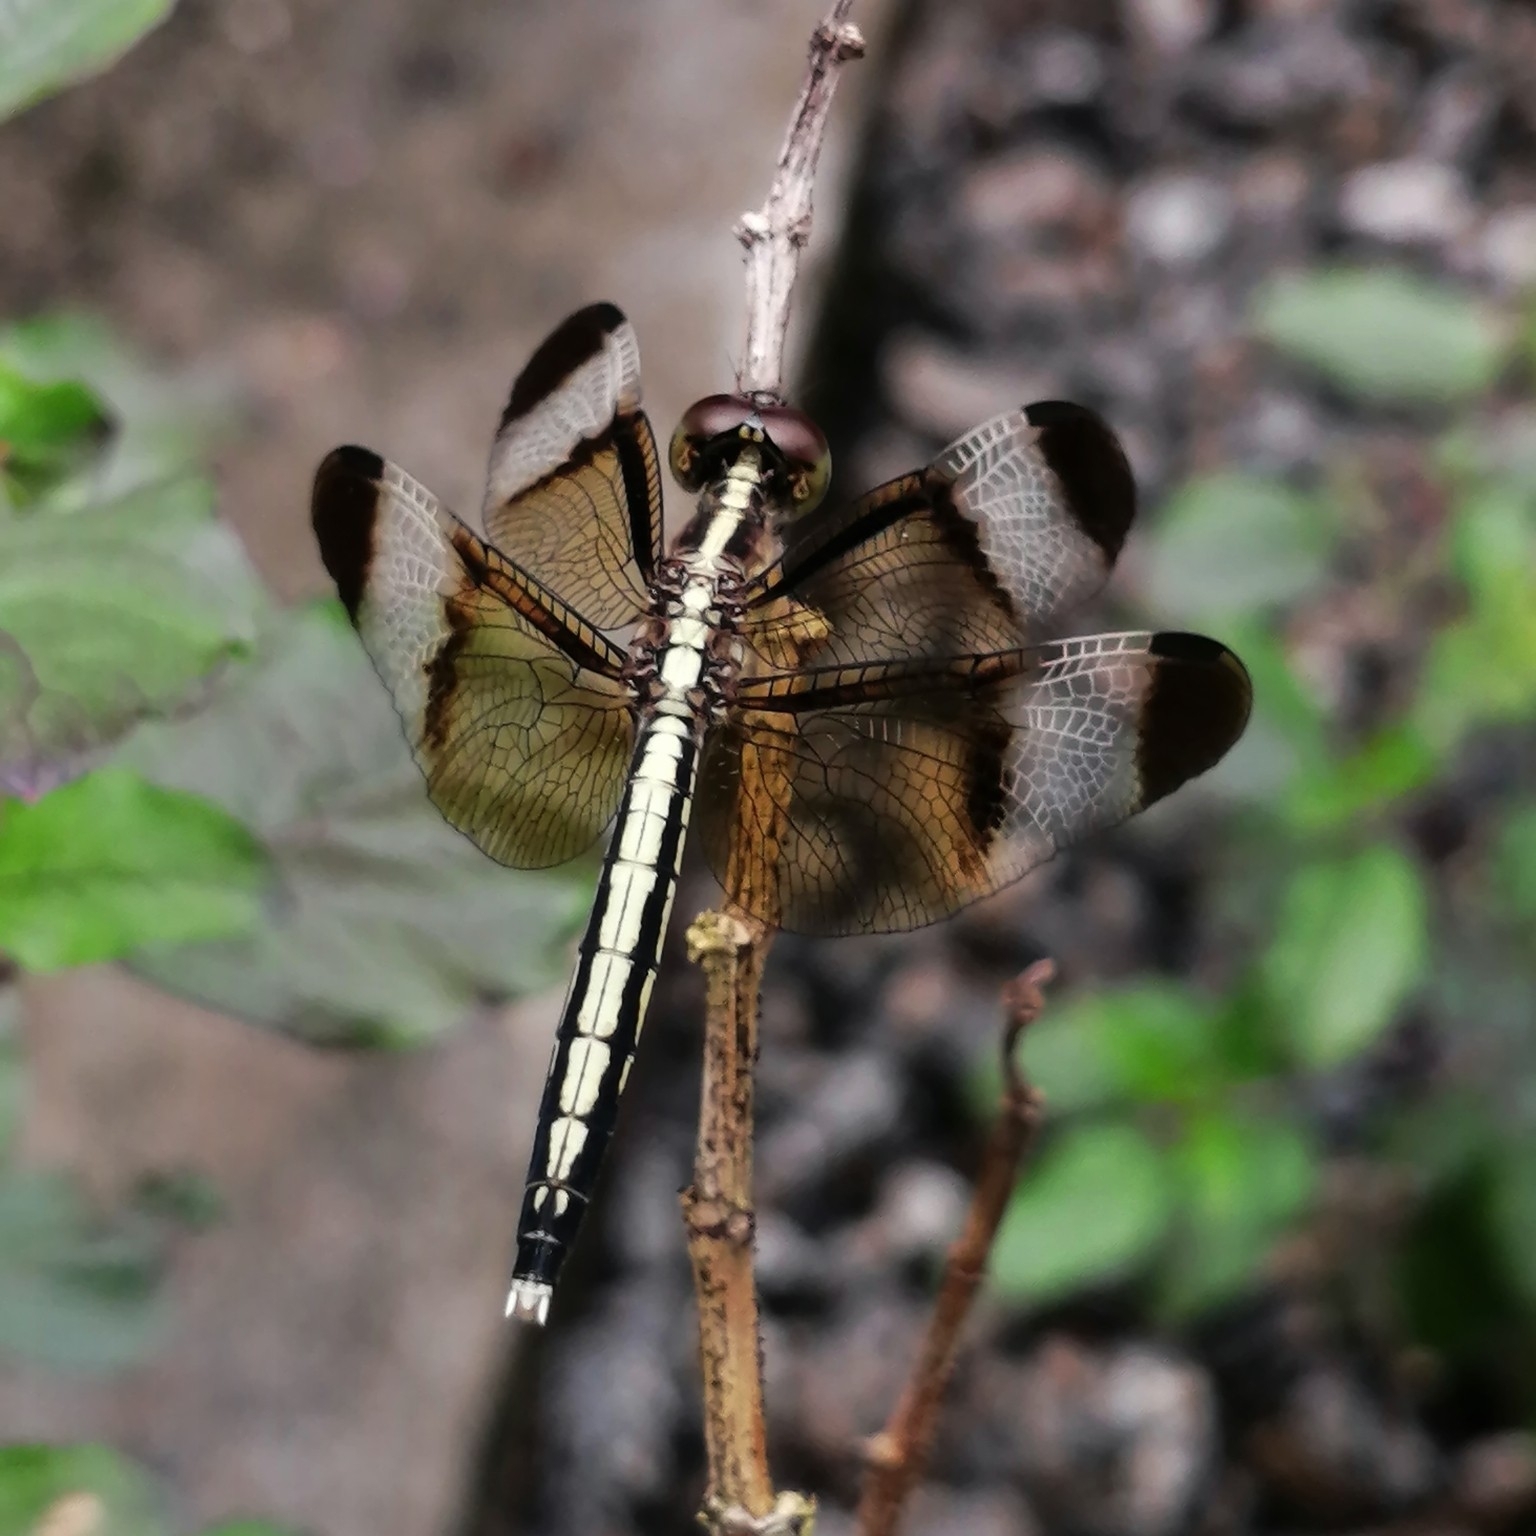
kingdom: Animalia
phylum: Arthropoda
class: Insecta
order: Odonata
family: Libellulidae
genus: Neurothemis
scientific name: Neurothemis tullia
